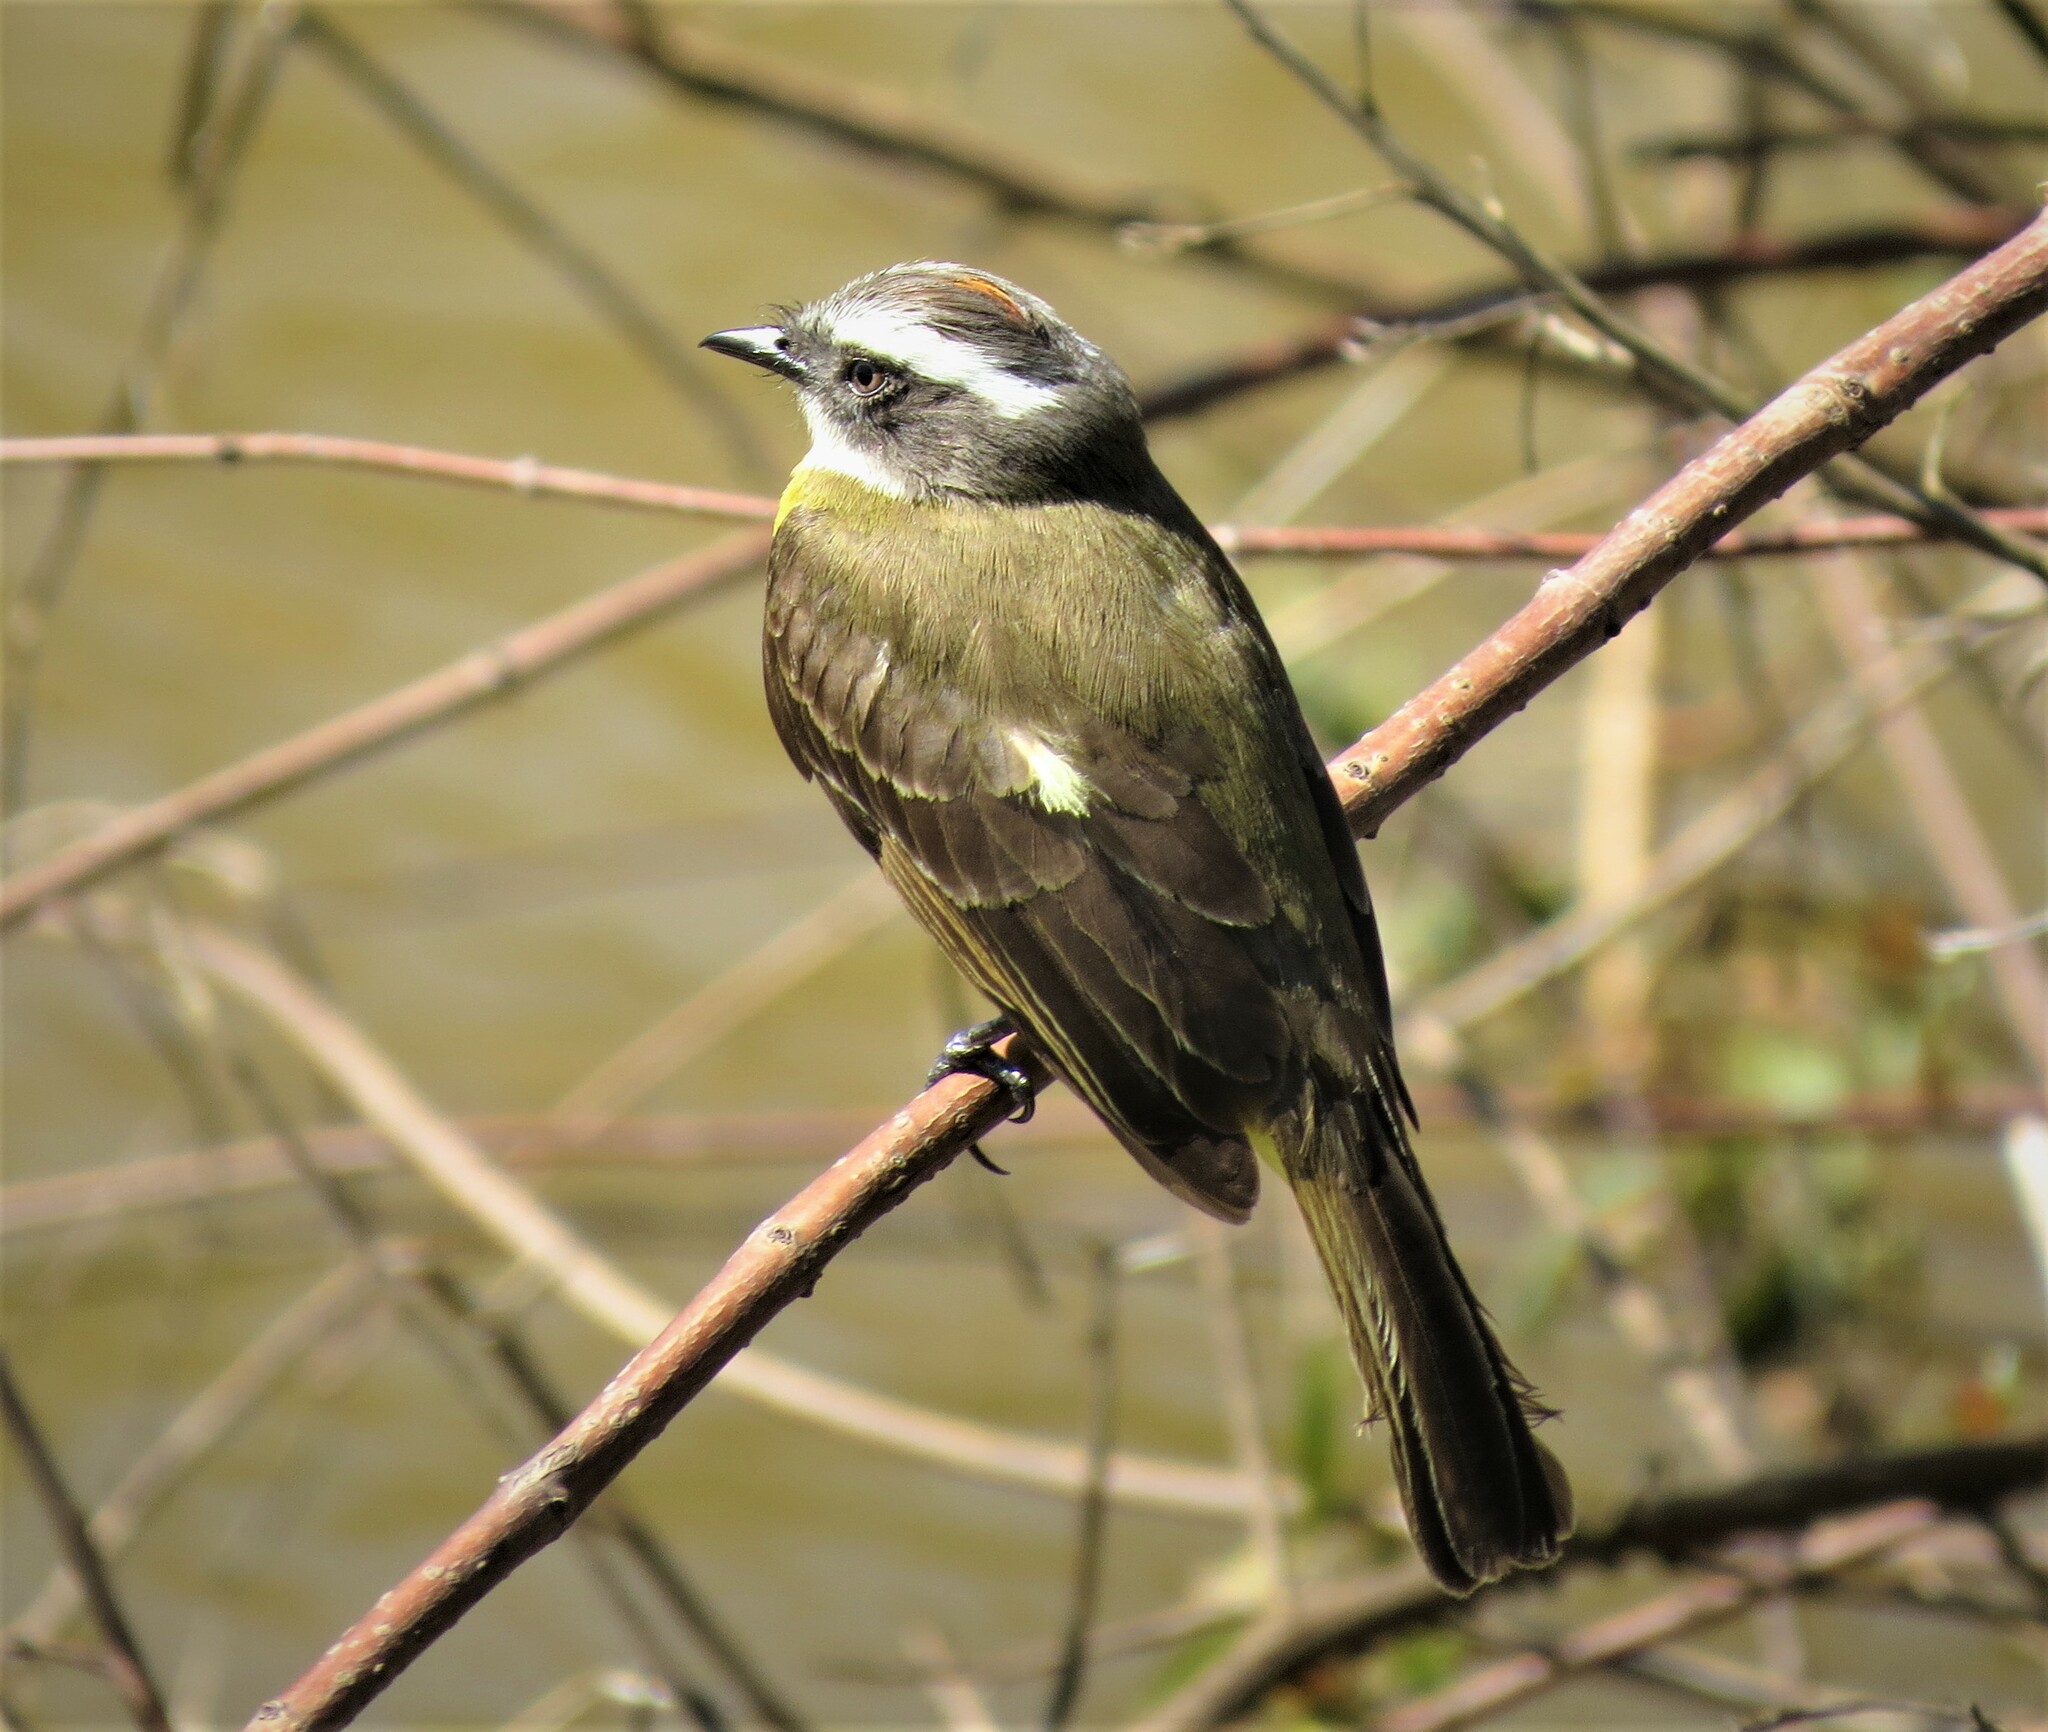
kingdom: Animalia
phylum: Chordata
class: Aves
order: Passeriformes
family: Tyrannidae
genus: Myiozetetes
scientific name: Myiozetetes similis
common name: Social flycatcher
